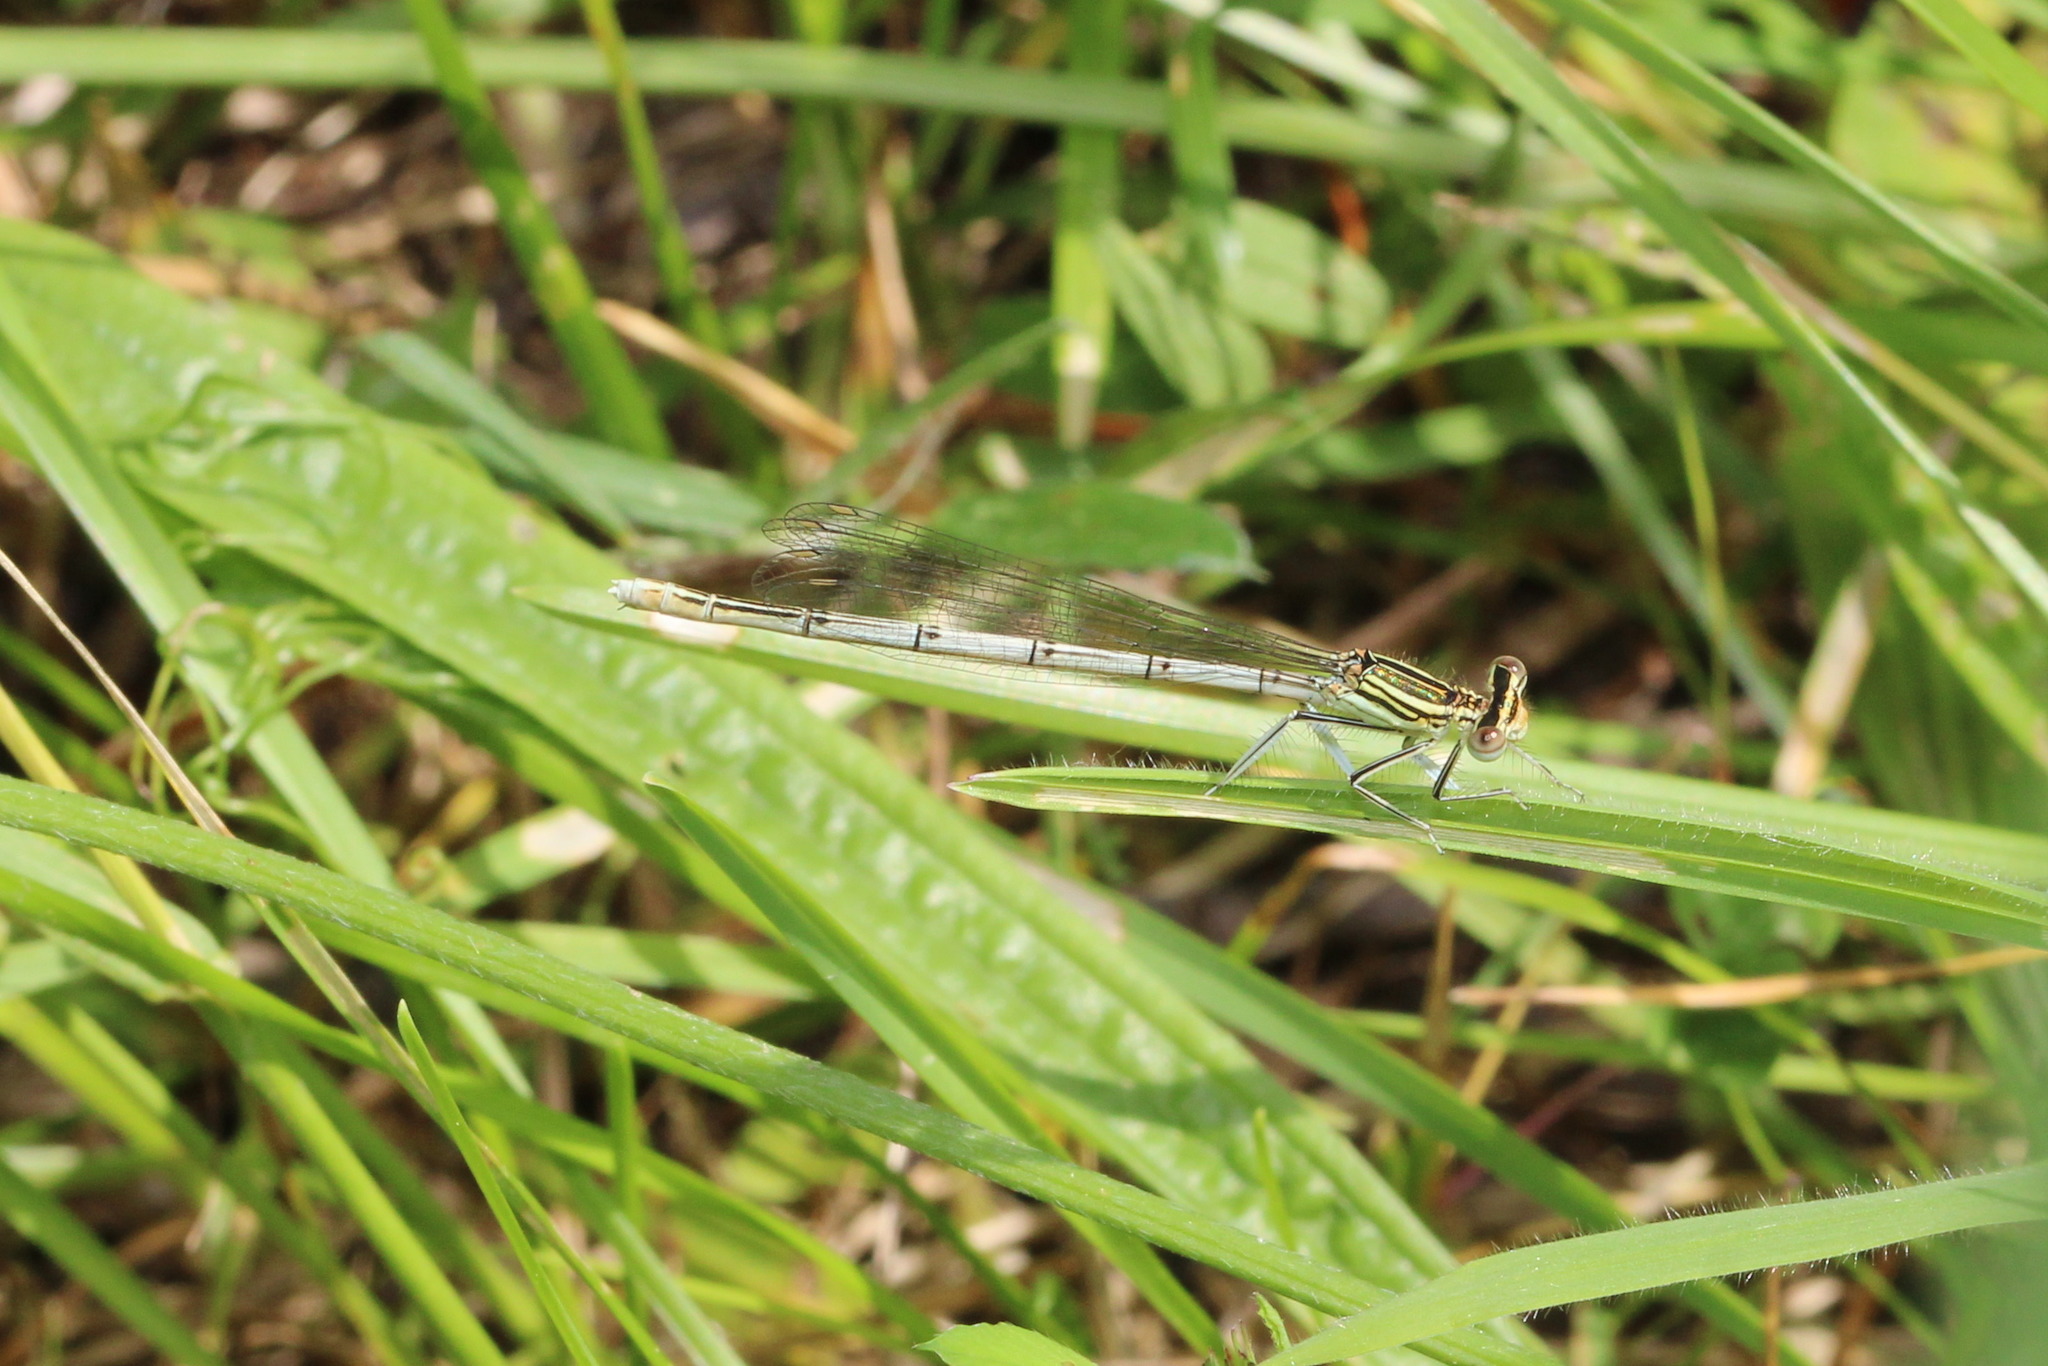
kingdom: Animalia
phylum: Arthropoda
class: Insecta
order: Odonata
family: Platycnemididae
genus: Platycnemis
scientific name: Platycnemis pennipes
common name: White-legged damselfly
